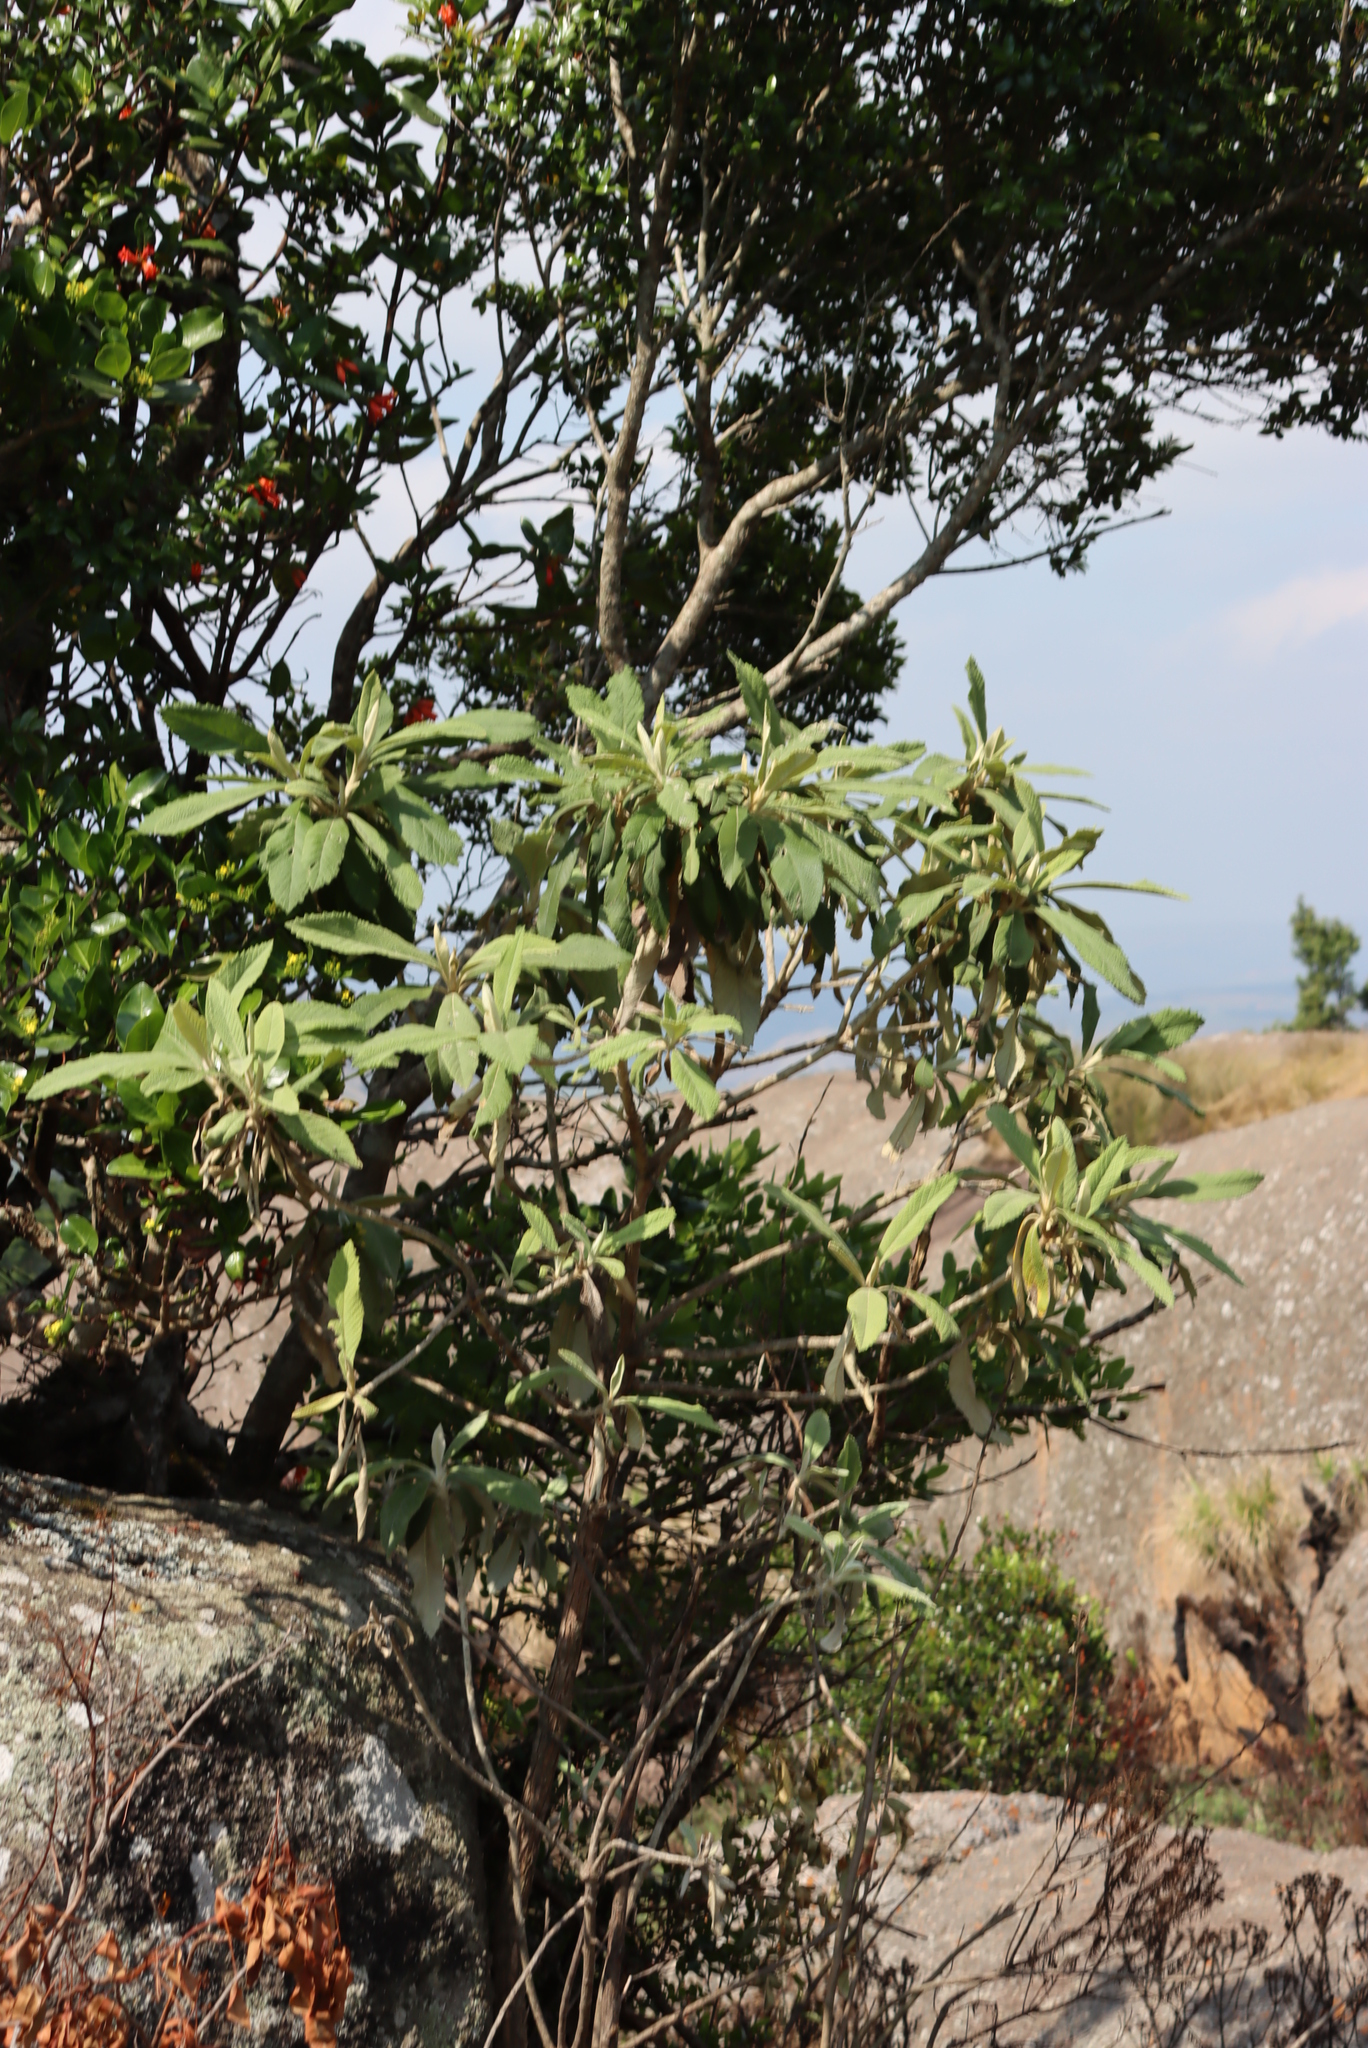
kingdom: Plantae
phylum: Tracheophyta
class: Magnoliopsida
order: Asterales
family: Asteraceae
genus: Tarchonanthus
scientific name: Tarchonanthus trilobus
